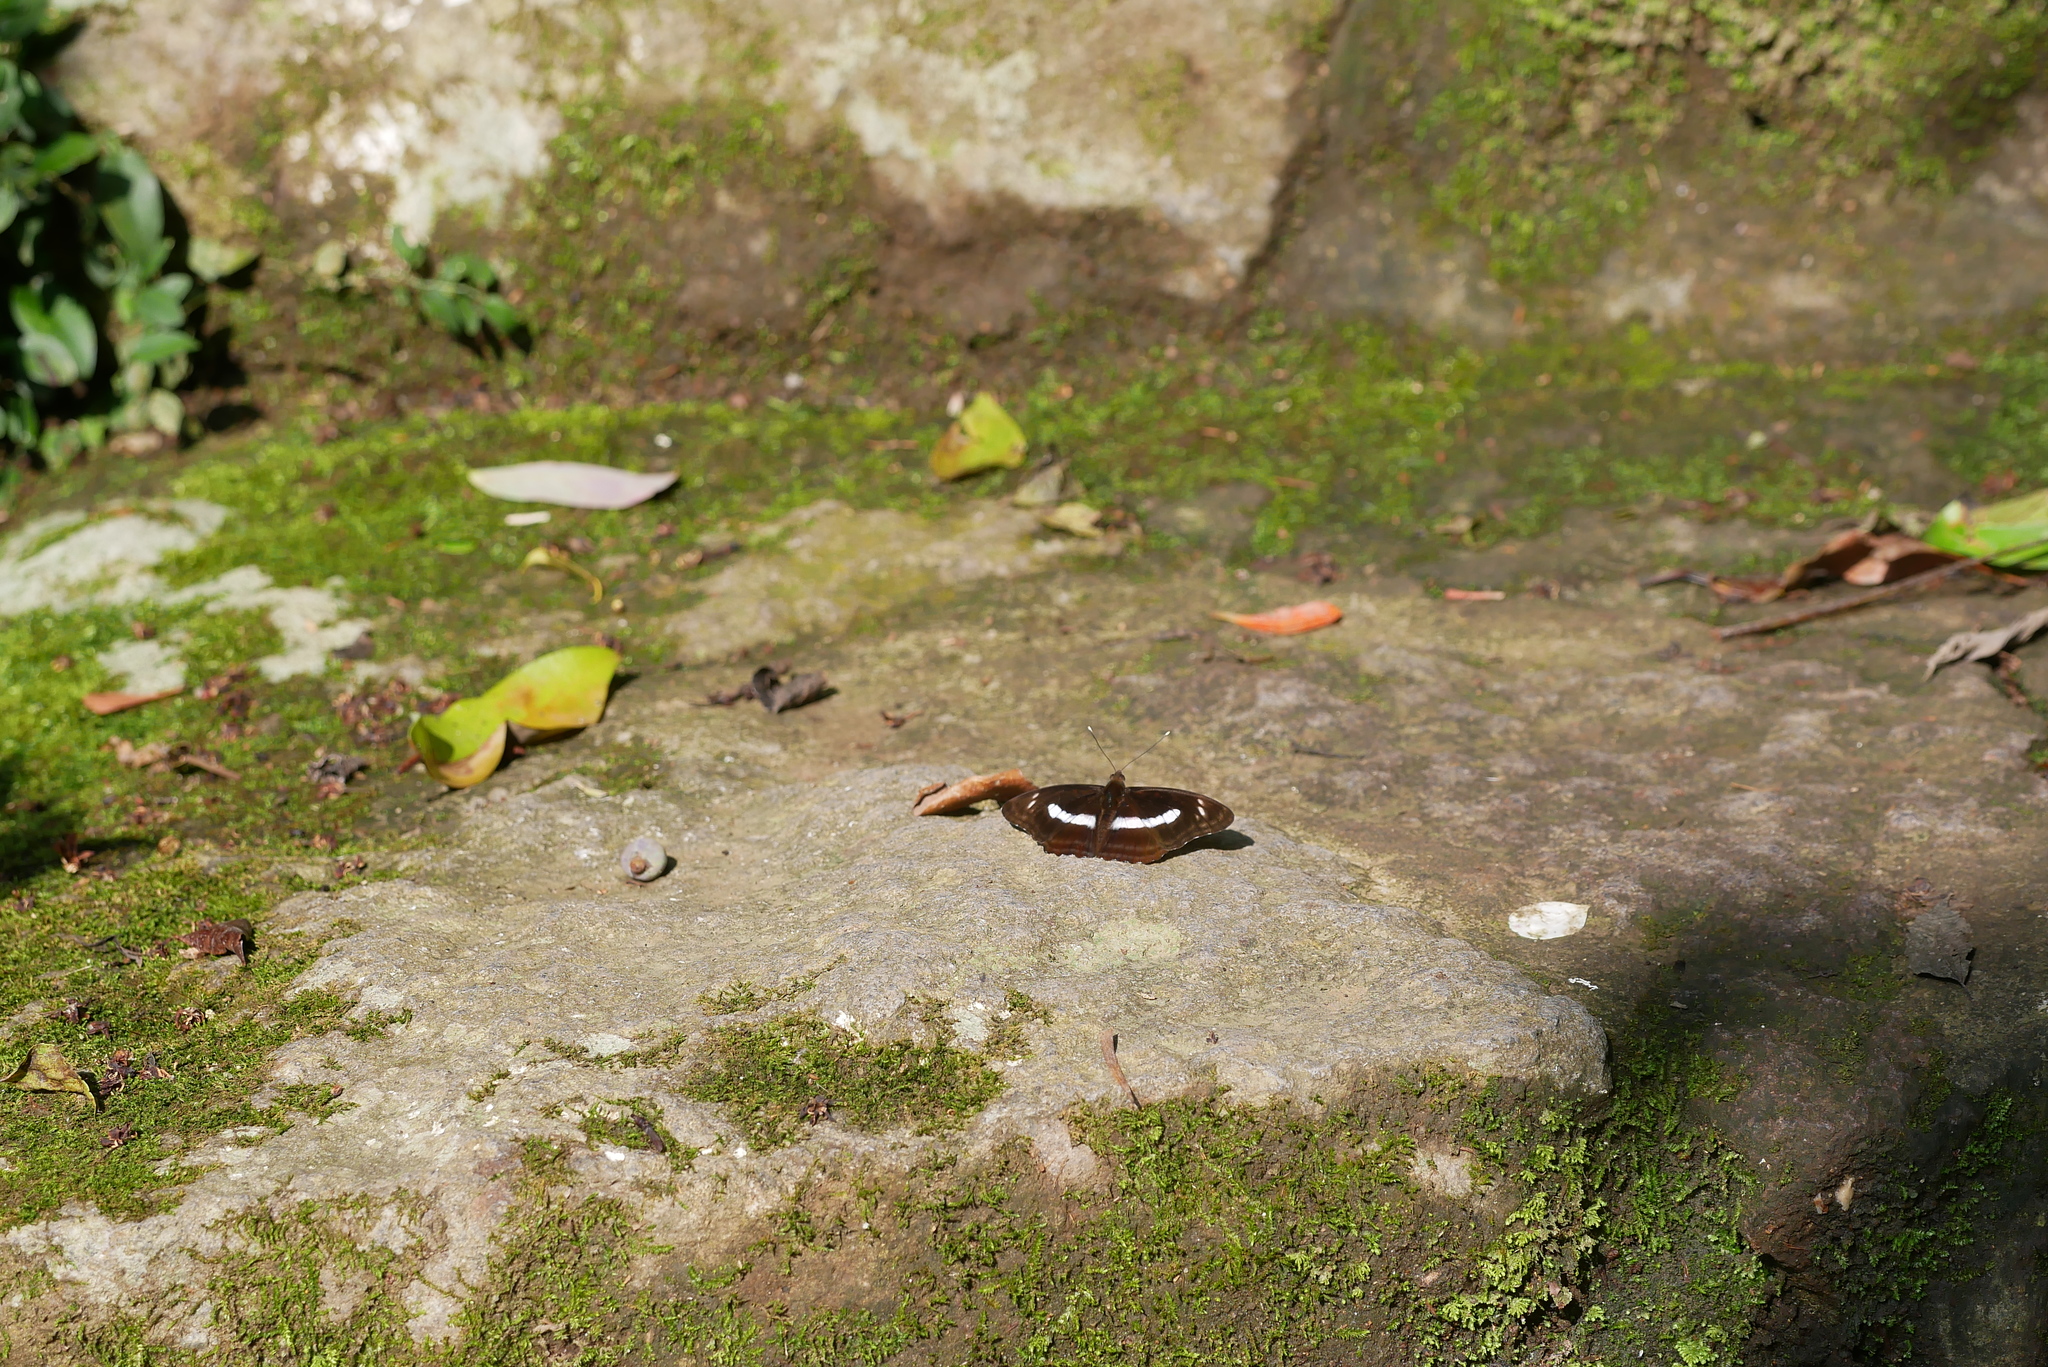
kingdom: Animalia
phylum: Arthropoda
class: Insecta
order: Lepidoptera
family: Nymphalidae
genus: Parathyma
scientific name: Parathyma selenophora
